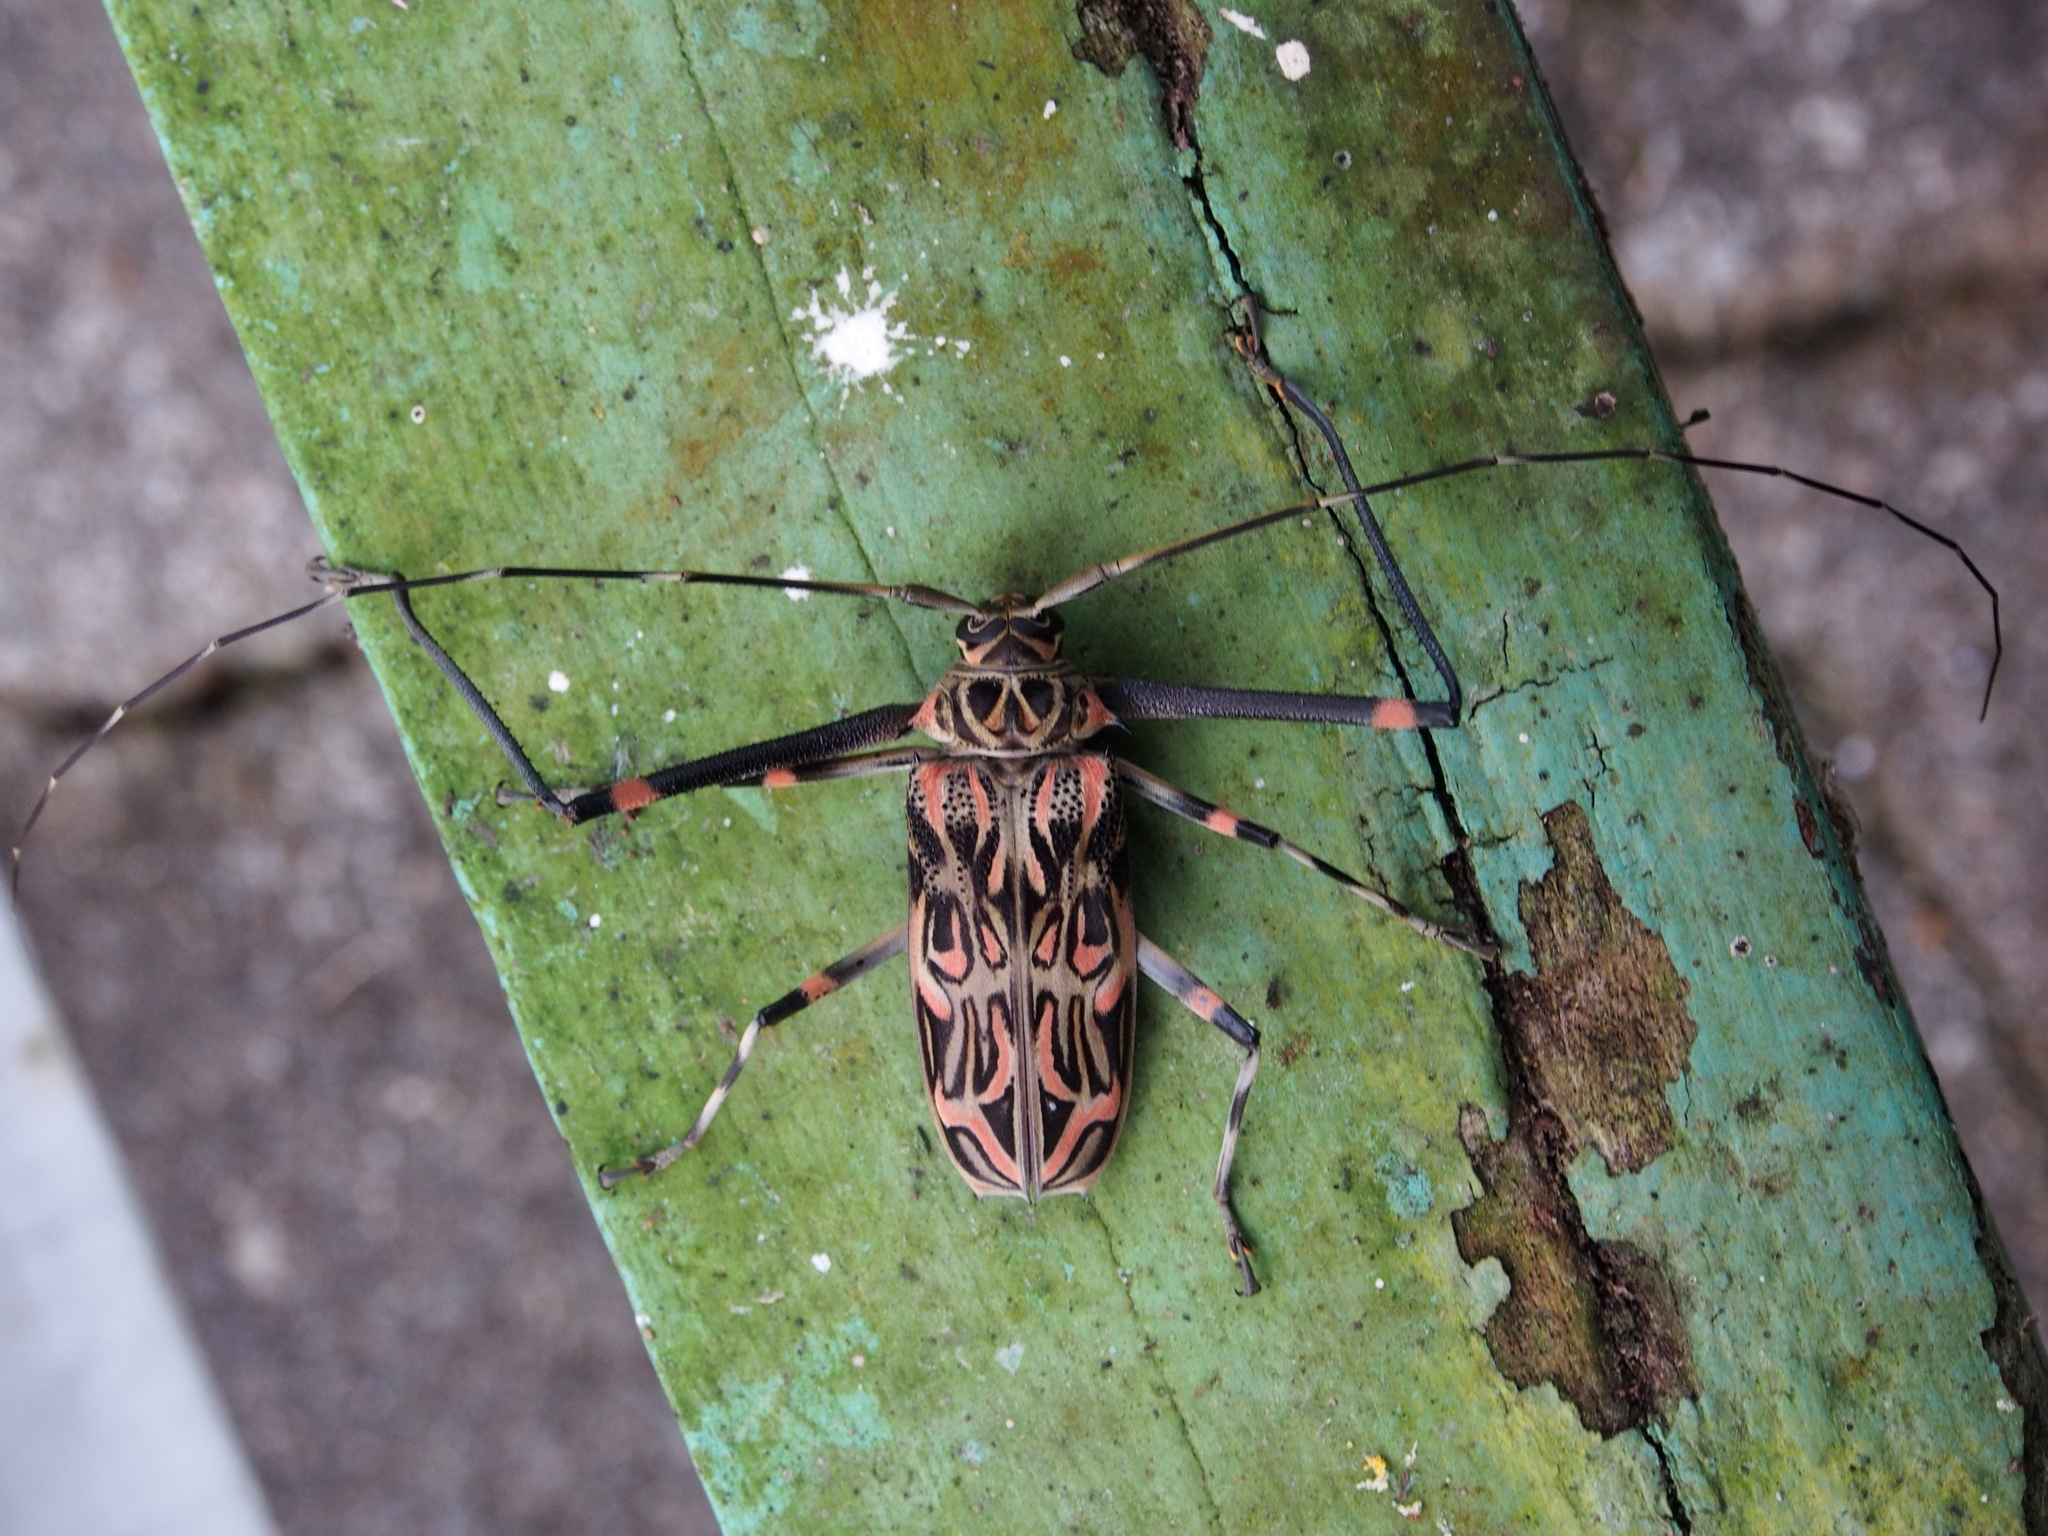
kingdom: Animalia
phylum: Arthropoda
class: Insecta
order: Coleoptera
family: Cerambycidae
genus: Acrocinus
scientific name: Acrocinus longimanus
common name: Arlequin
